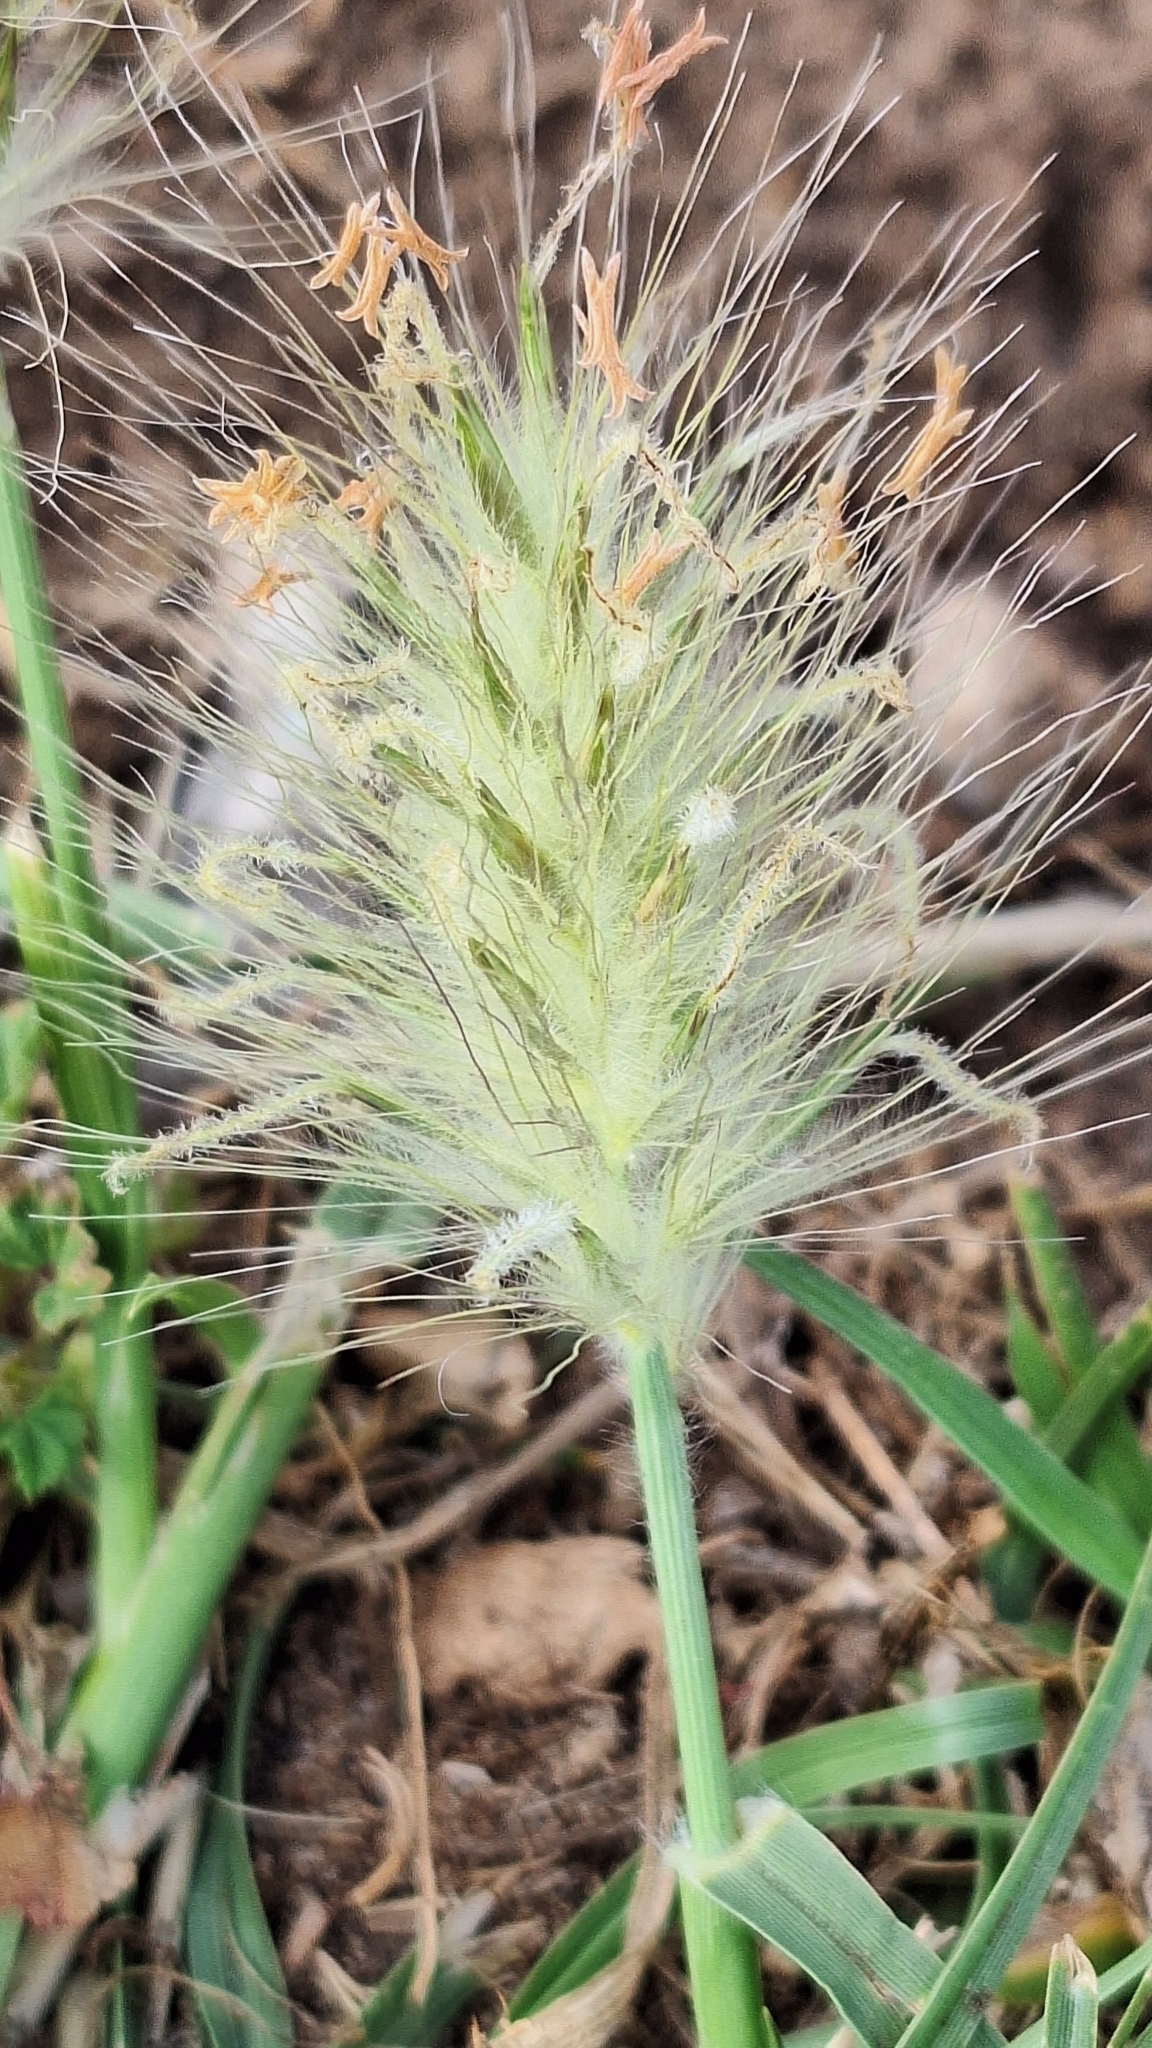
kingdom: Plantae
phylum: Tracheophyta
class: Liliopsida
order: Poales
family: Poaceae
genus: Cenchrus
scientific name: Cenchrus longisetus
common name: Feathertop
